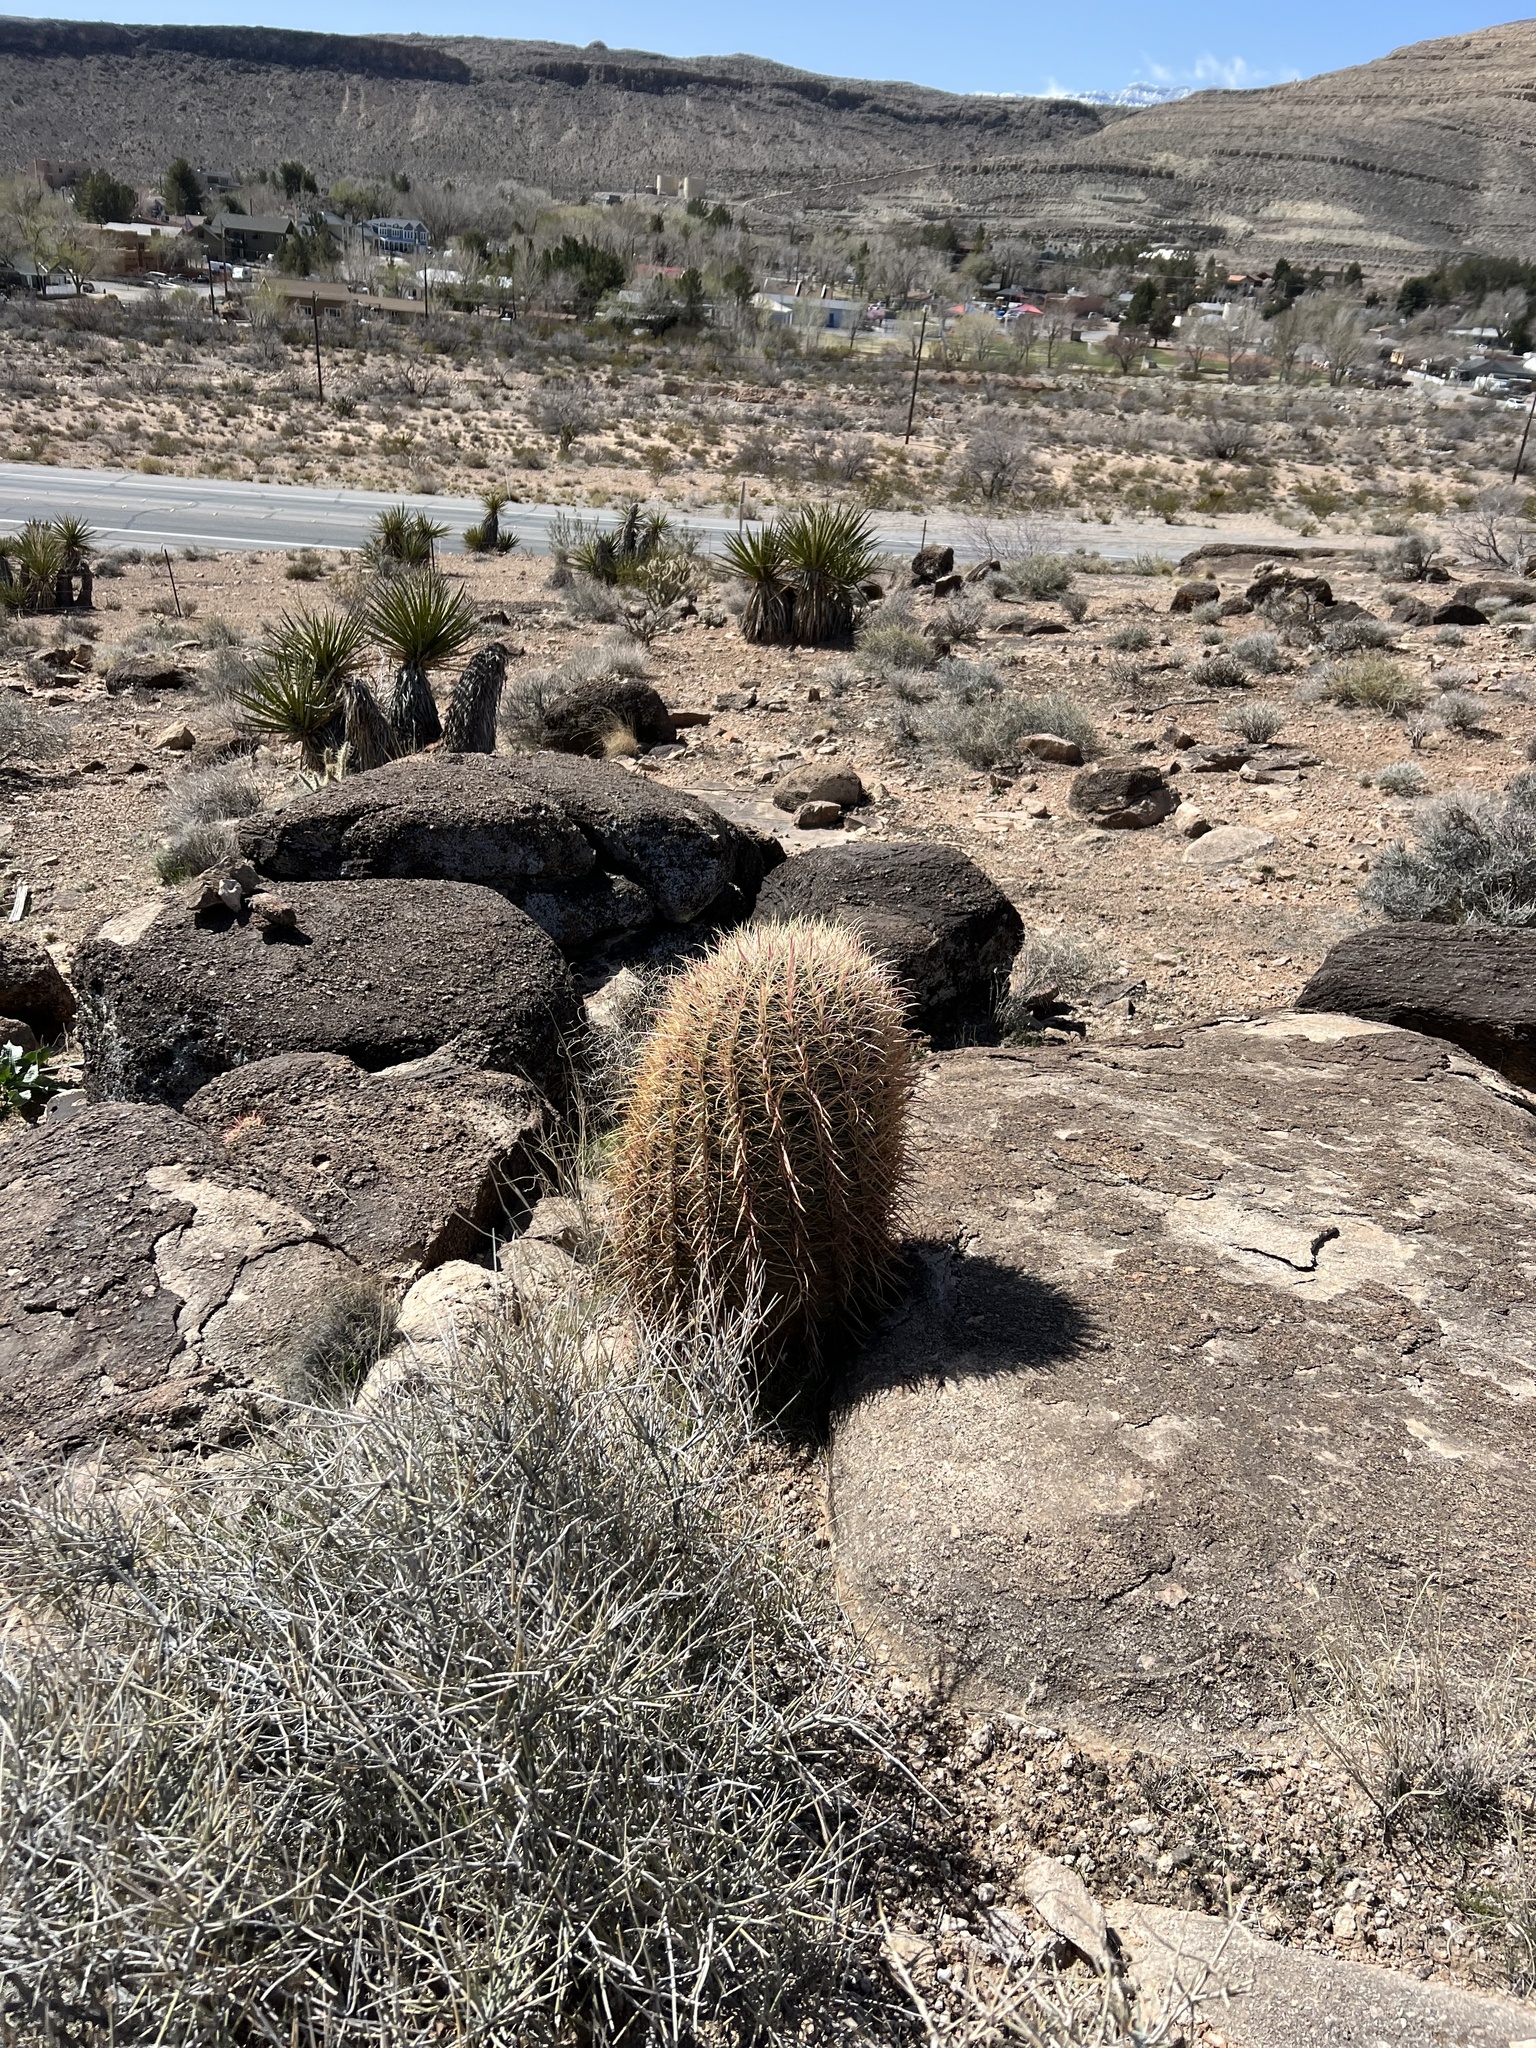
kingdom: Plantae
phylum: Tracheophyta
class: Magnoliopsida
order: Caryophyllales
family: Cactaceae
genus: Ferocactus
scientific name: Ferocactus cylindraceus
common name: California barrel cactus
